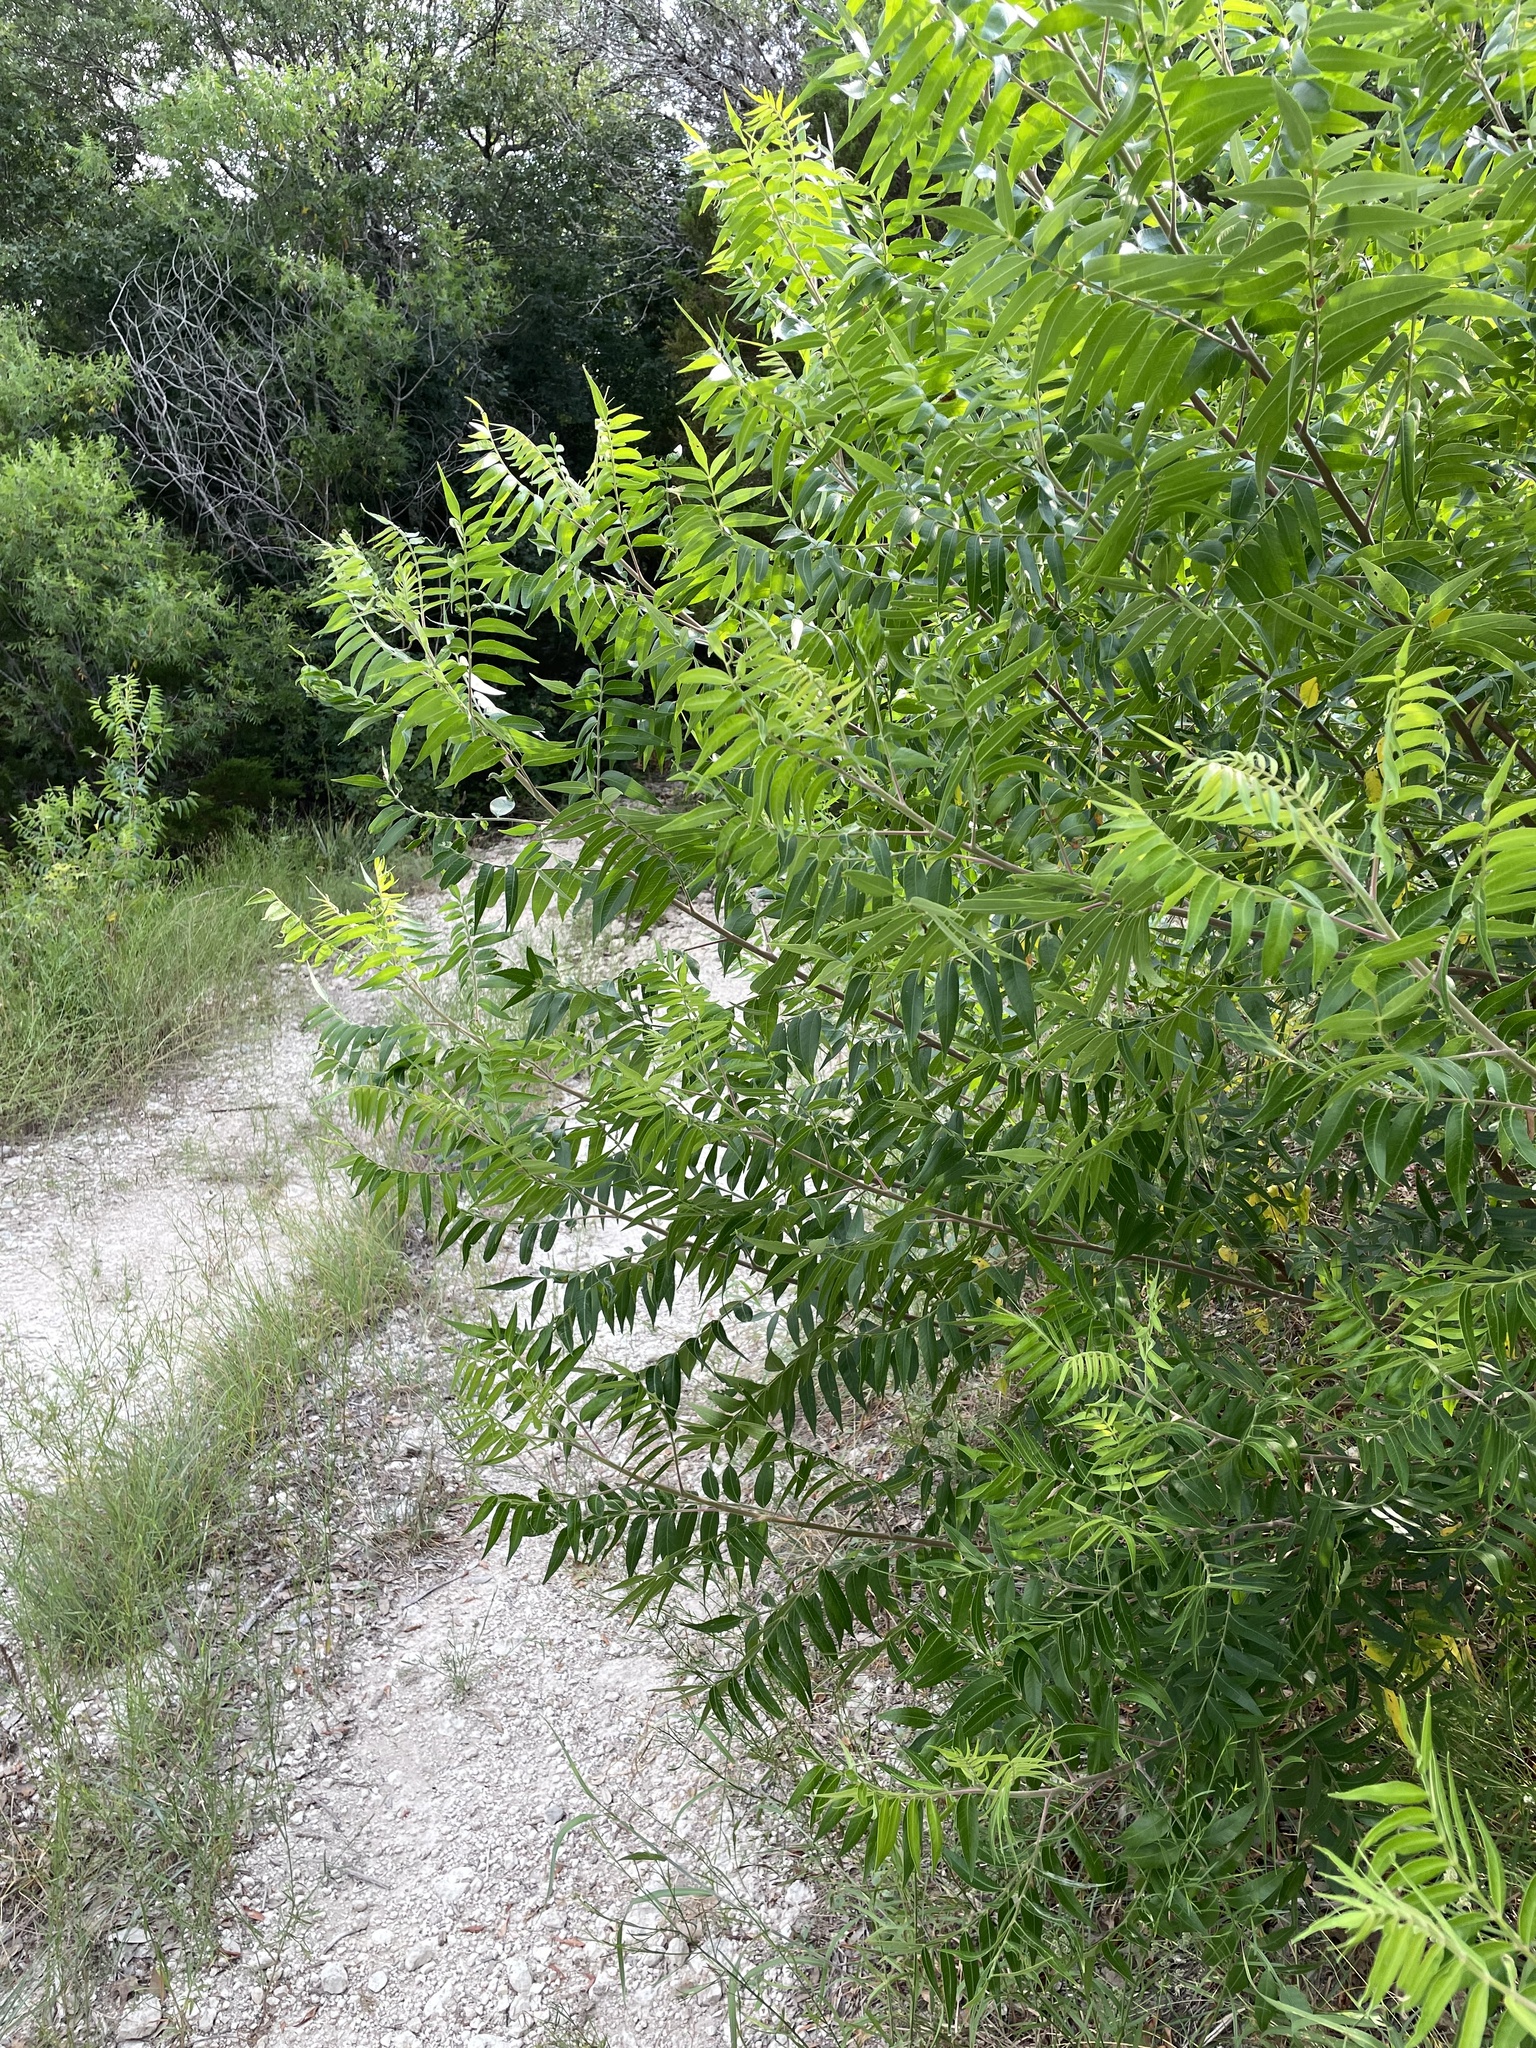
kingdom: Plantae
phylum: Tracheophyta
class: Magnoliopsida
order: Sapindales
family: Anacardiaceae
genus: Rhus
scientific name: Rhus lanceolata
